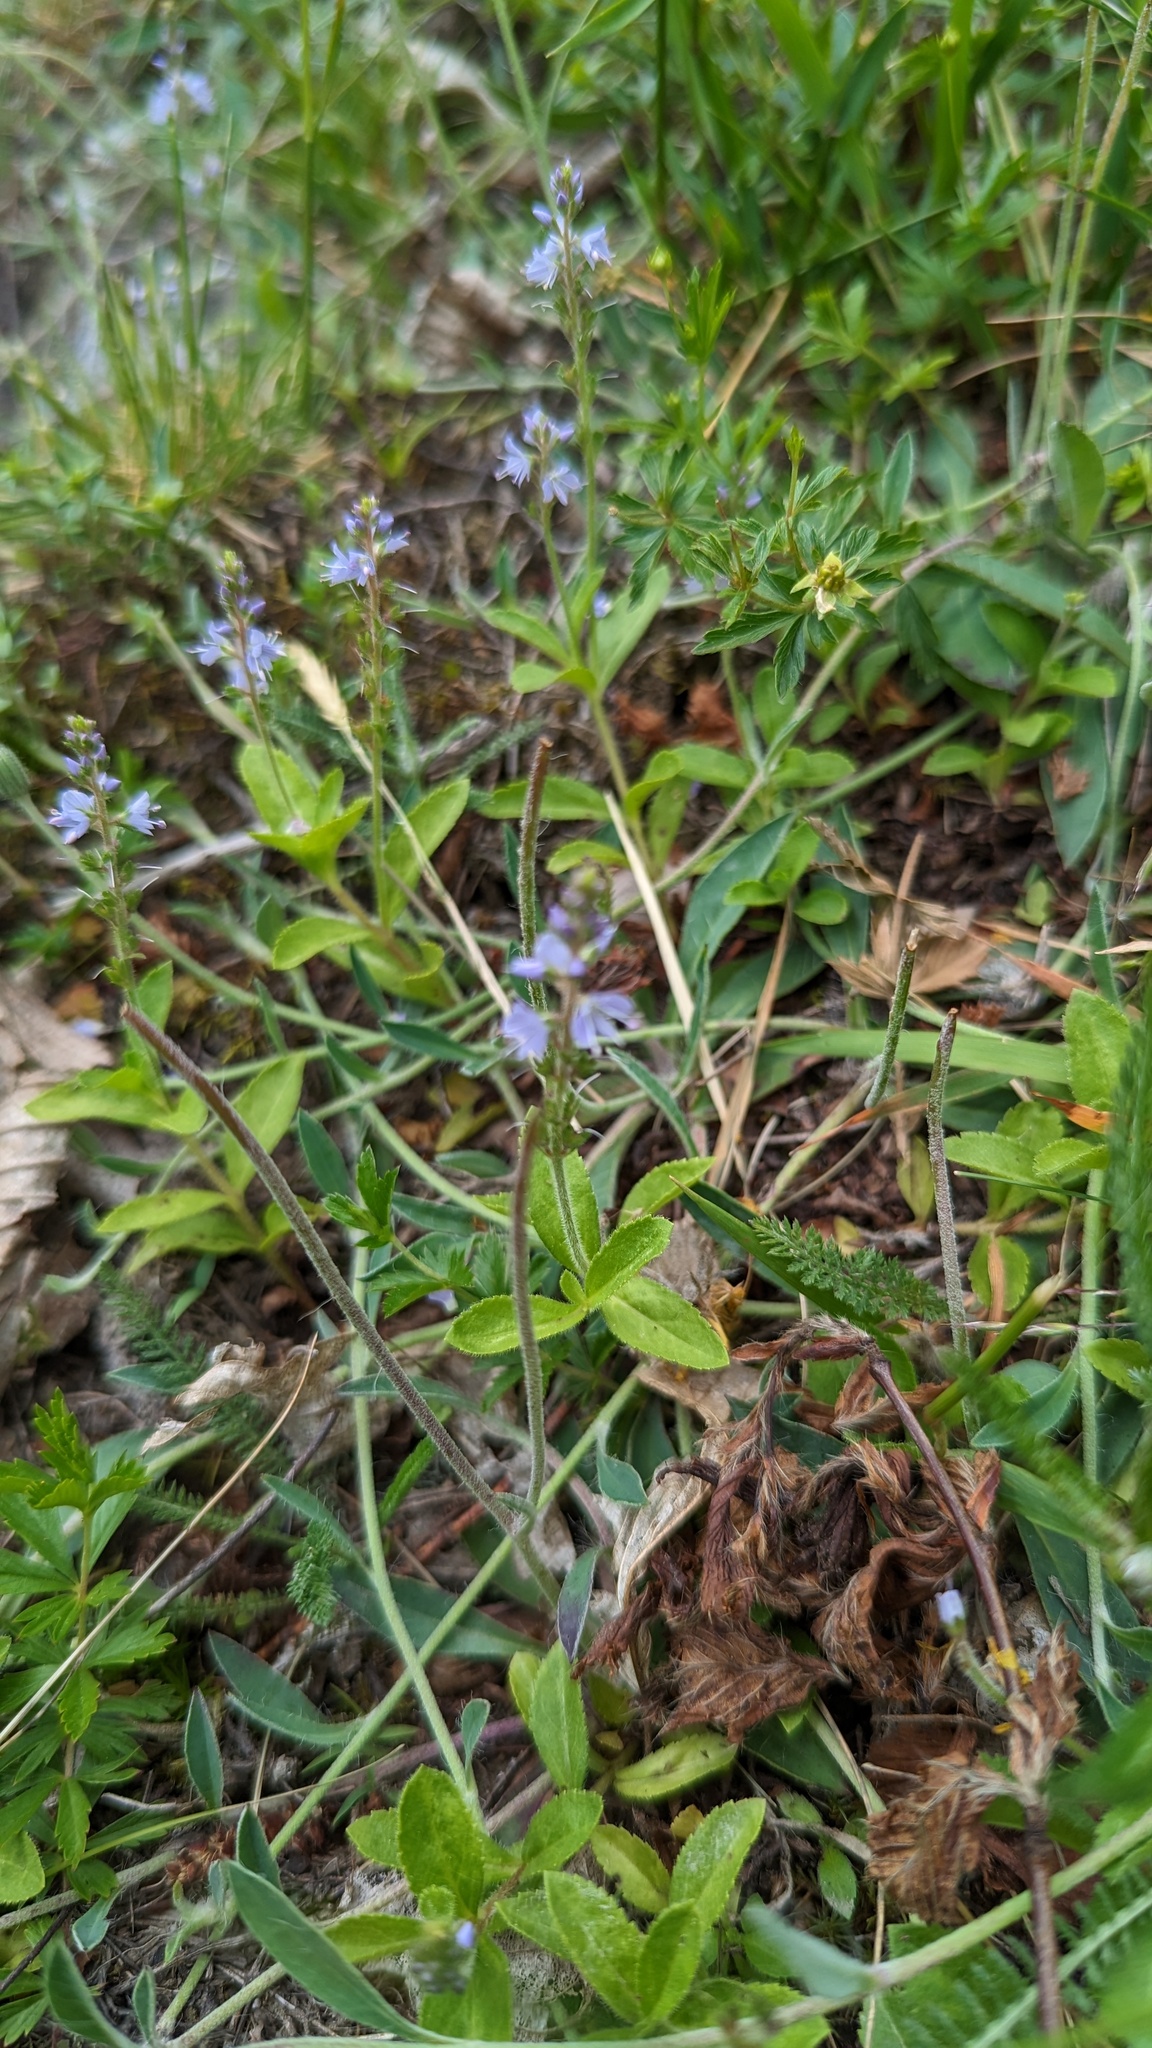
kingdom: Plantae
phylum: Tracheophyta
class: Magnoliopsida
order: Lamiales
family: Plantaginaceae
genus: Veronica
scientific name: Veronica officinalis
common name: Common speedwell
